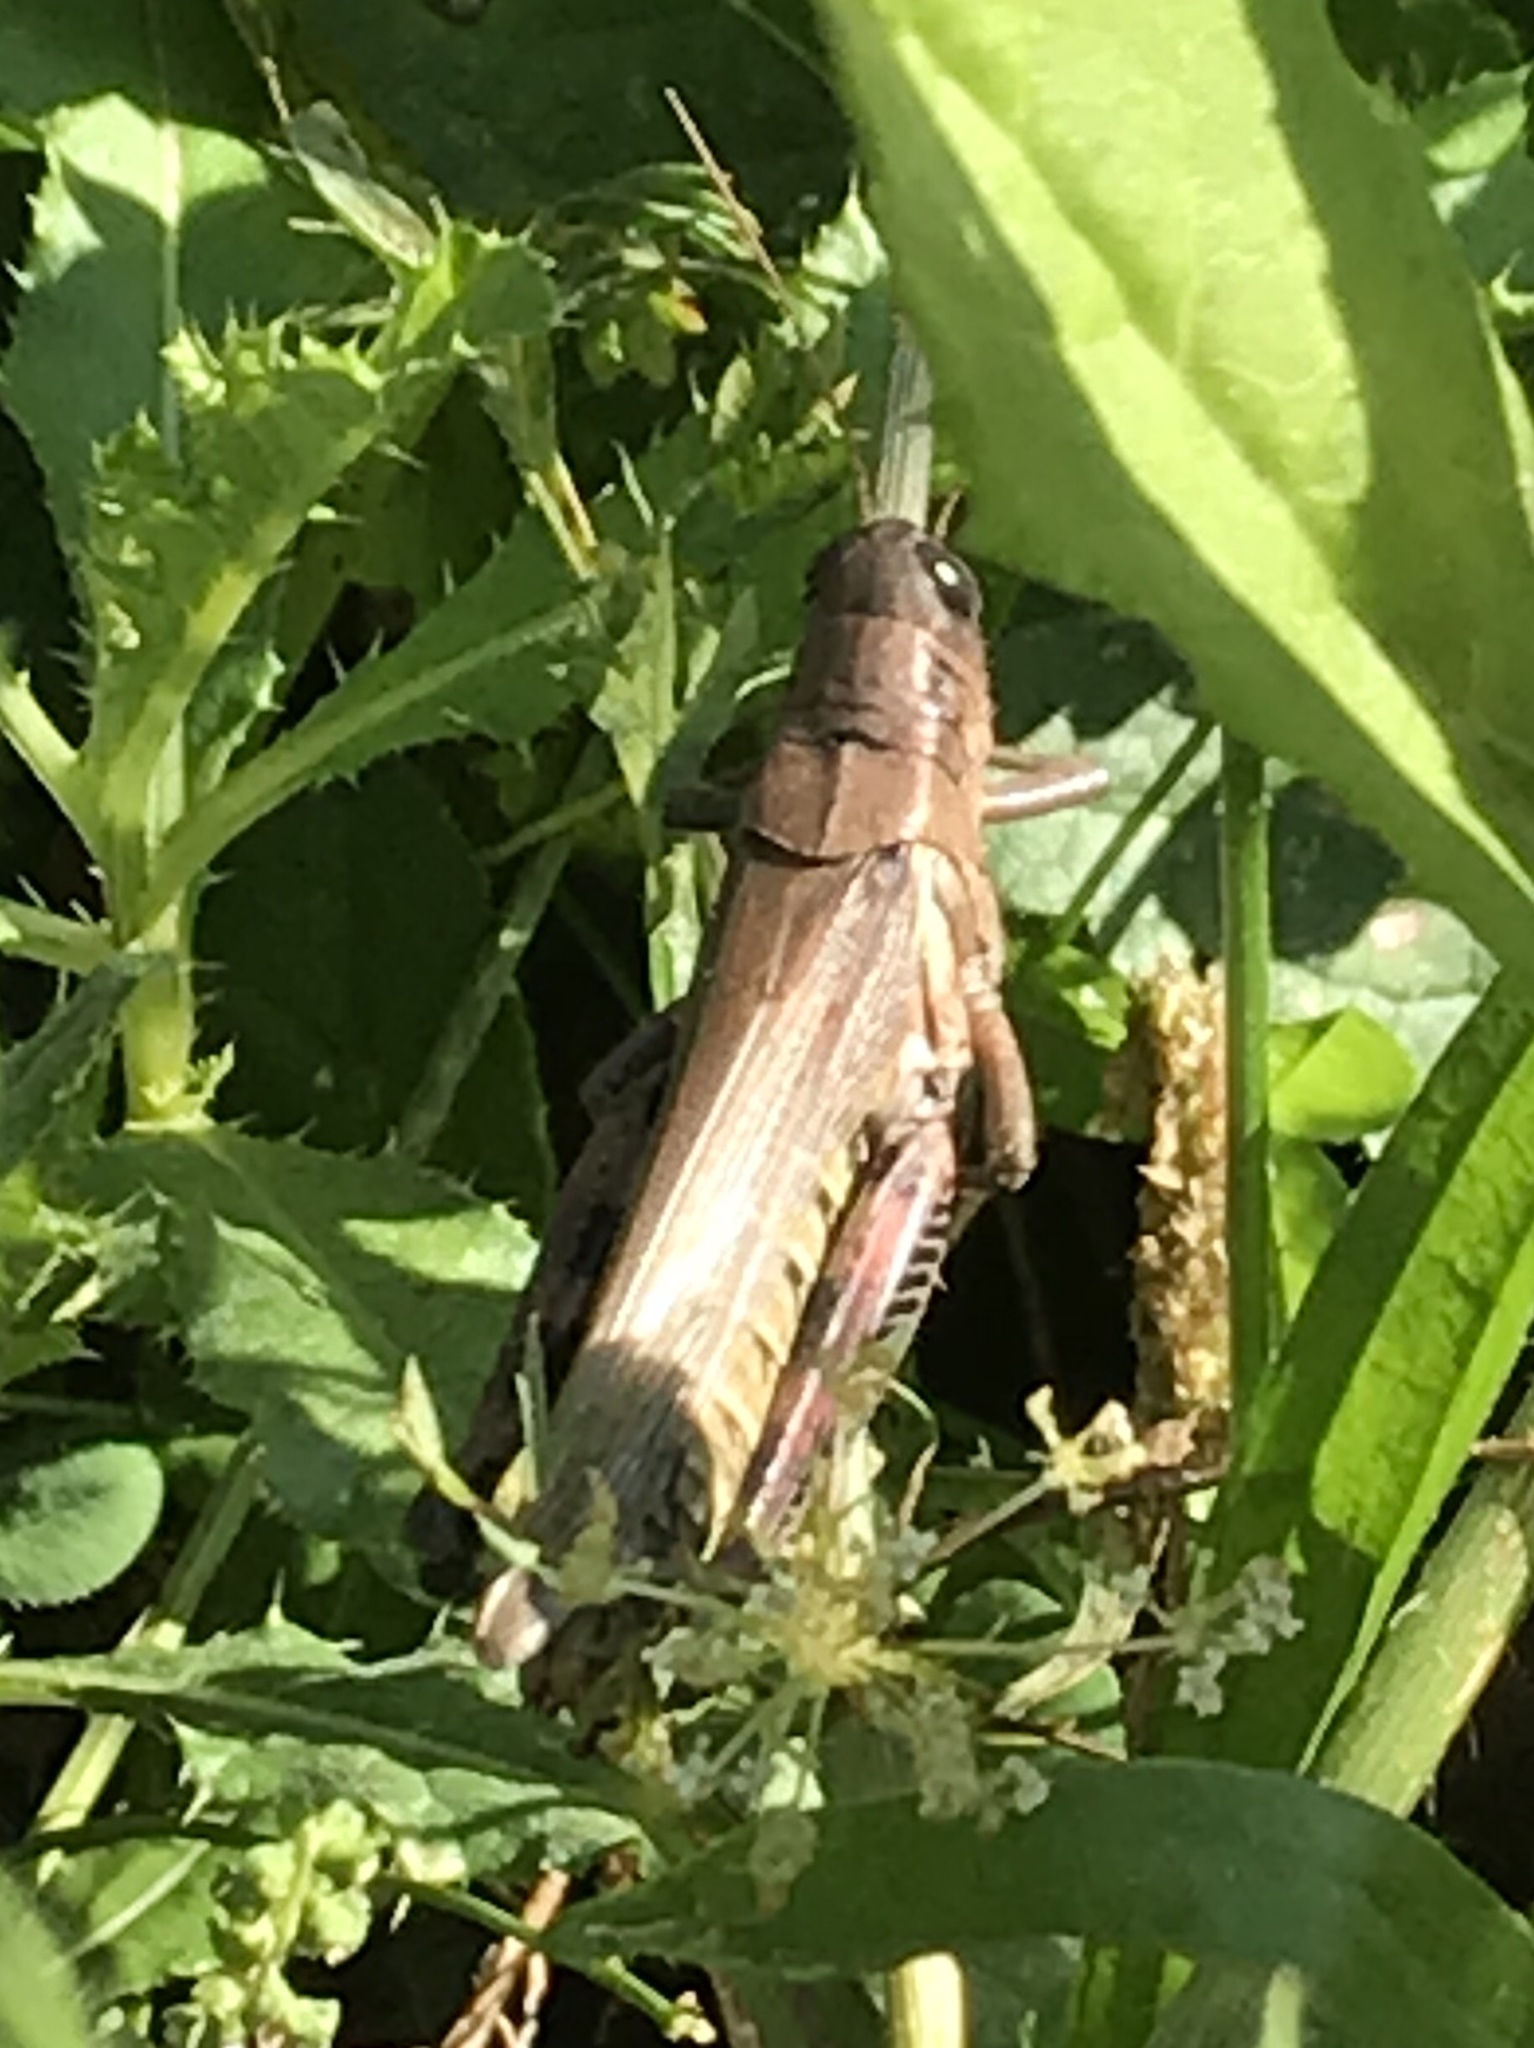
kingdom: Animalia
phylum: Arthropoda
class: Insecta
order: Orthoptera
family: Acrididae
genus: Melanoplus
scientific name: Melanoplus differentialis
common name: Differential grasshopper
